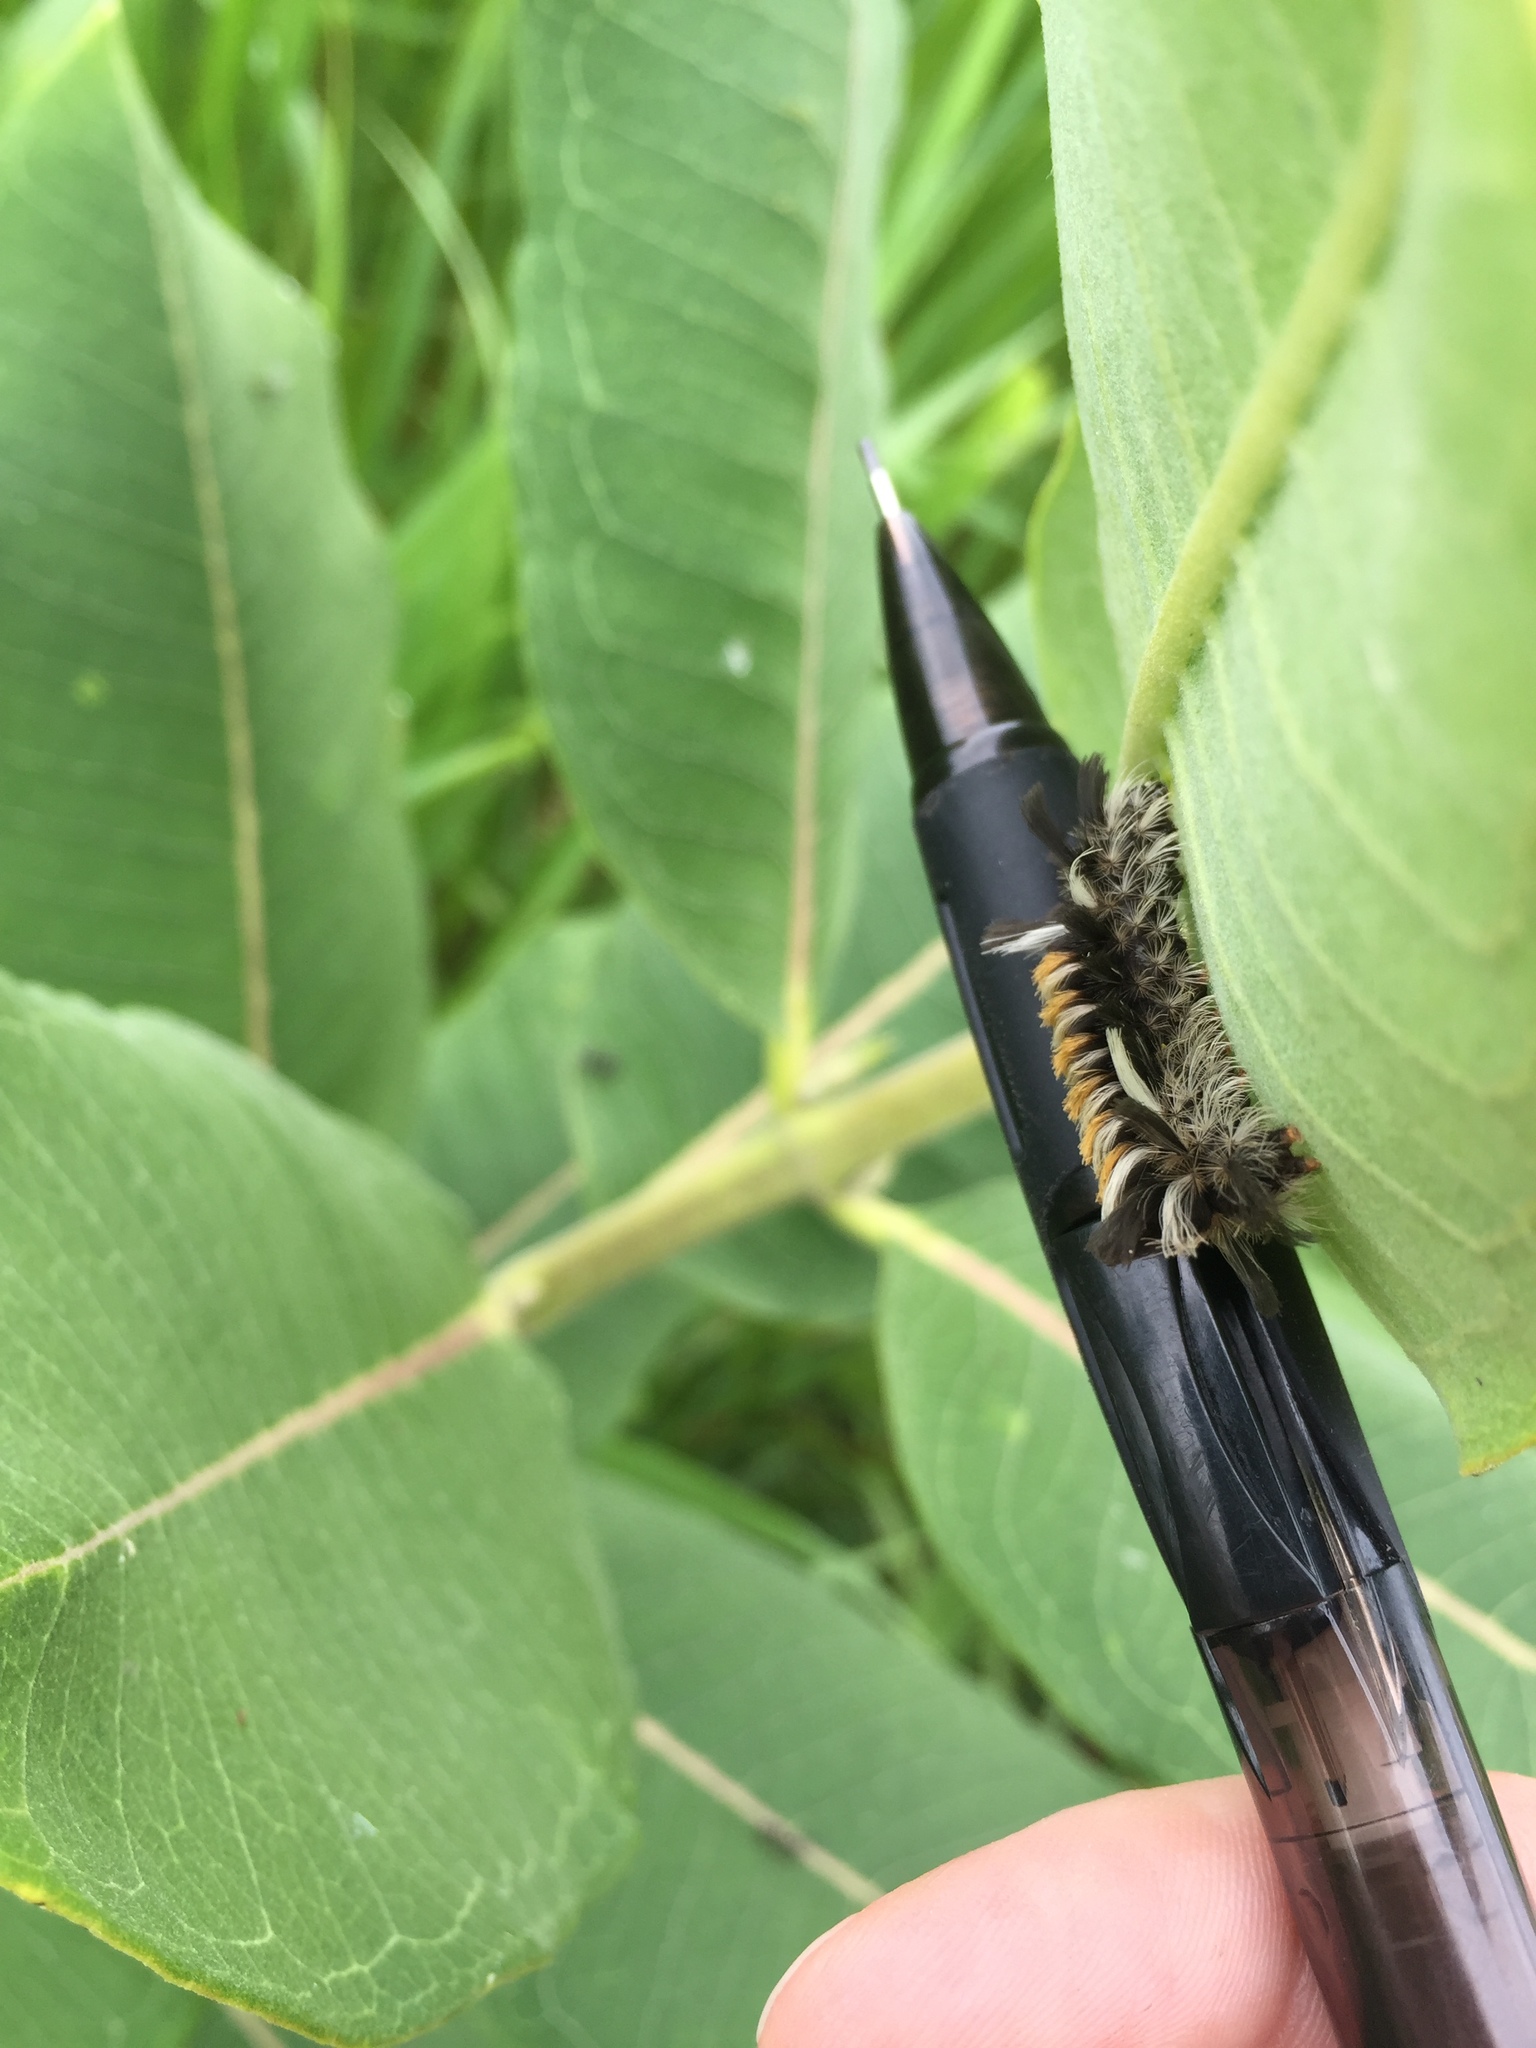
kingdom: Animalia
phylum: Arthropoda
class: Insecta
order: Lepidoptera
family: Erebidae
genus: Euchaetes
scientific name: Euchaetes egle
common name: Milkweed tussock moth
